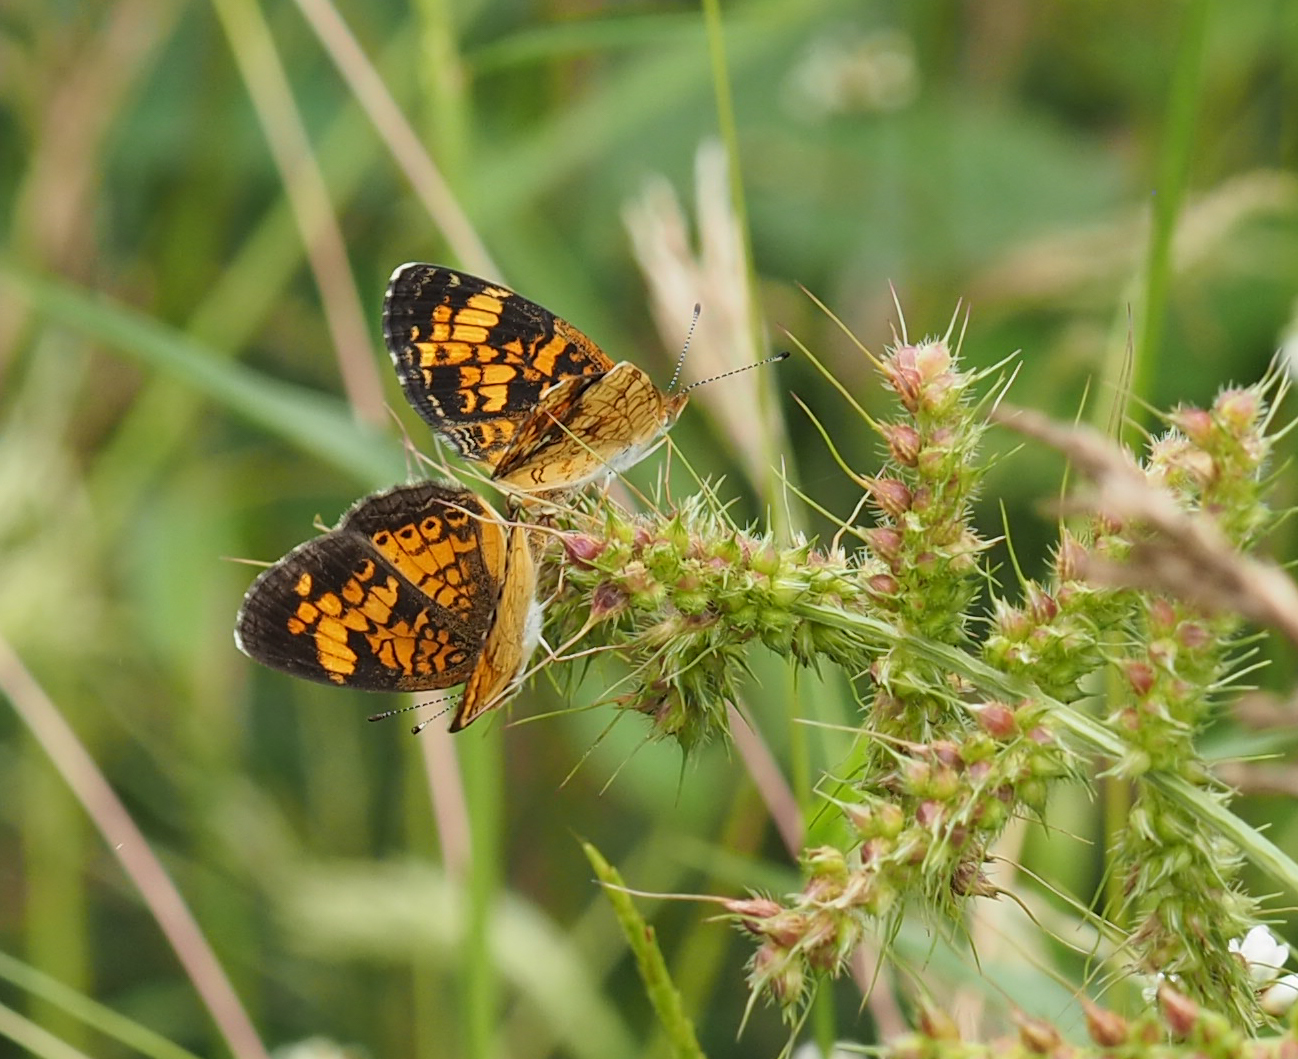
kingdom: Animalia
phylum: Arthropoda
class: Insecta
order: Lepidoptera
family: Nymphalidae
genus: Phyciodes
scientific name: Phyciodes tharos
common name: Pearl crescent
